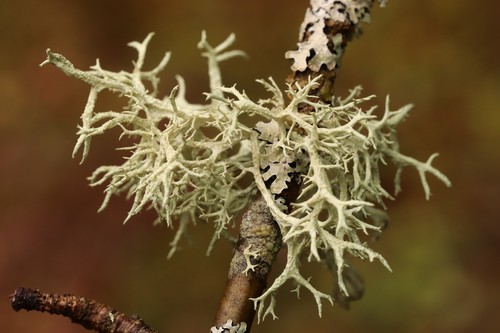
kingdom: Fungi
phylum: Ascomycota
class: Lecanoromycetes
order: Lecanorales
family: Parmeliaceae
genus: Evernia
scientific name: Evernia mesomorpha
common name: Boreal oak moss lichen
